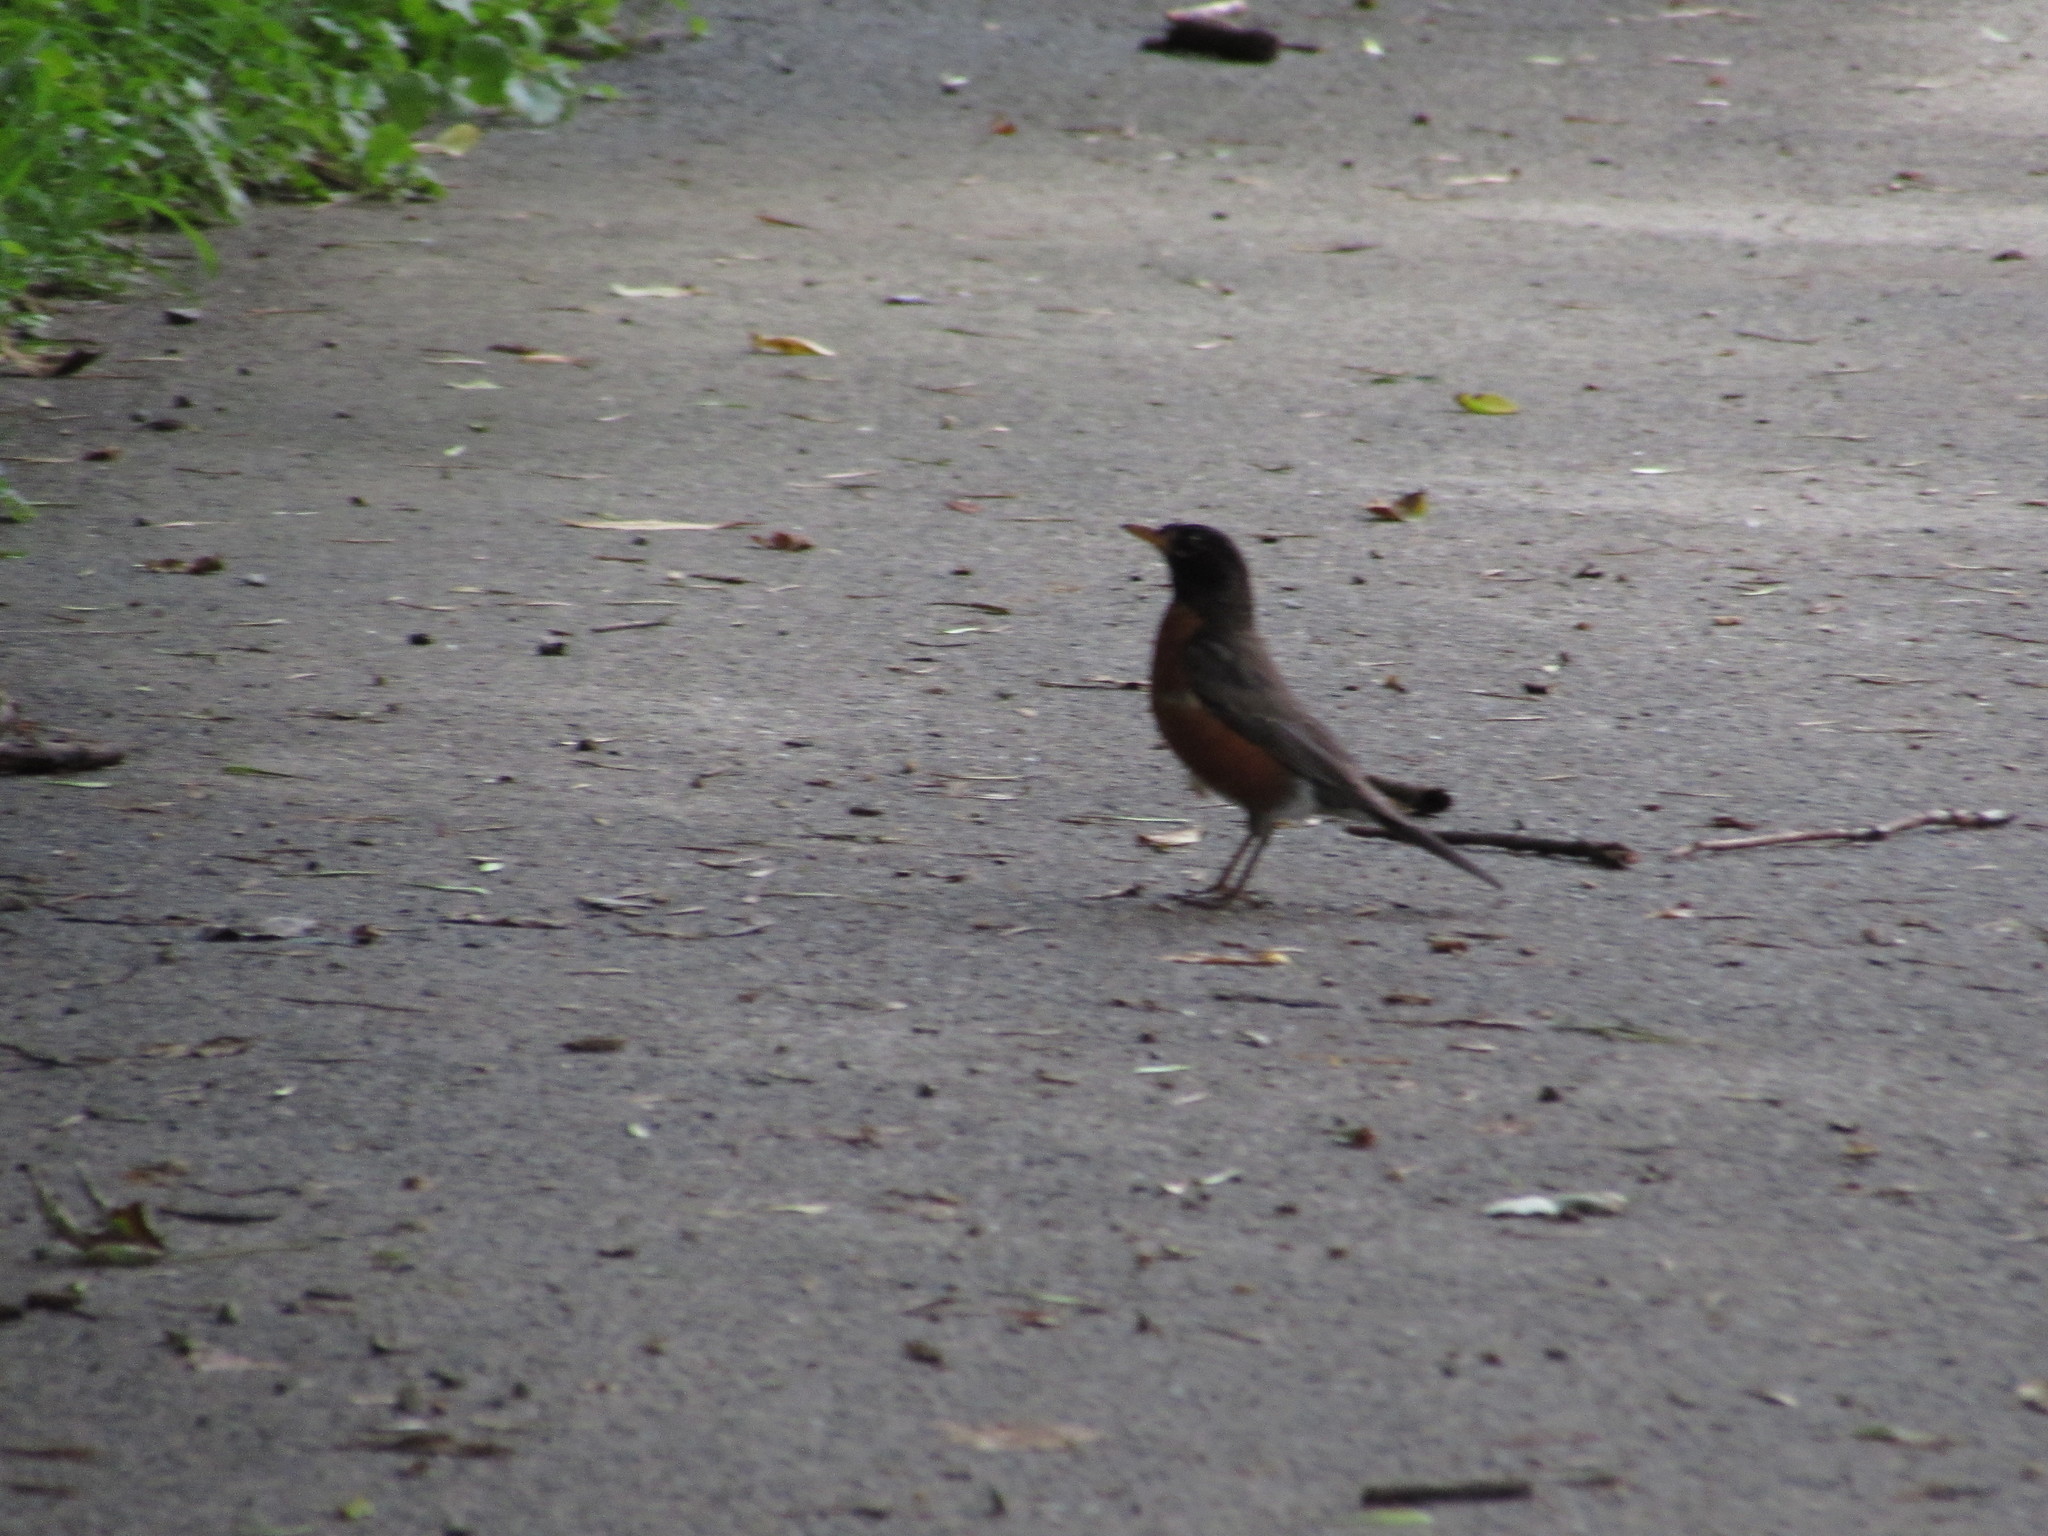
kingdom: Animalia
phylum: Chordata
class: Aves
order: Passeriformes
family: Turdidae
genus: Turdus
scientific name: Turdus migratorius
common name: American robin
